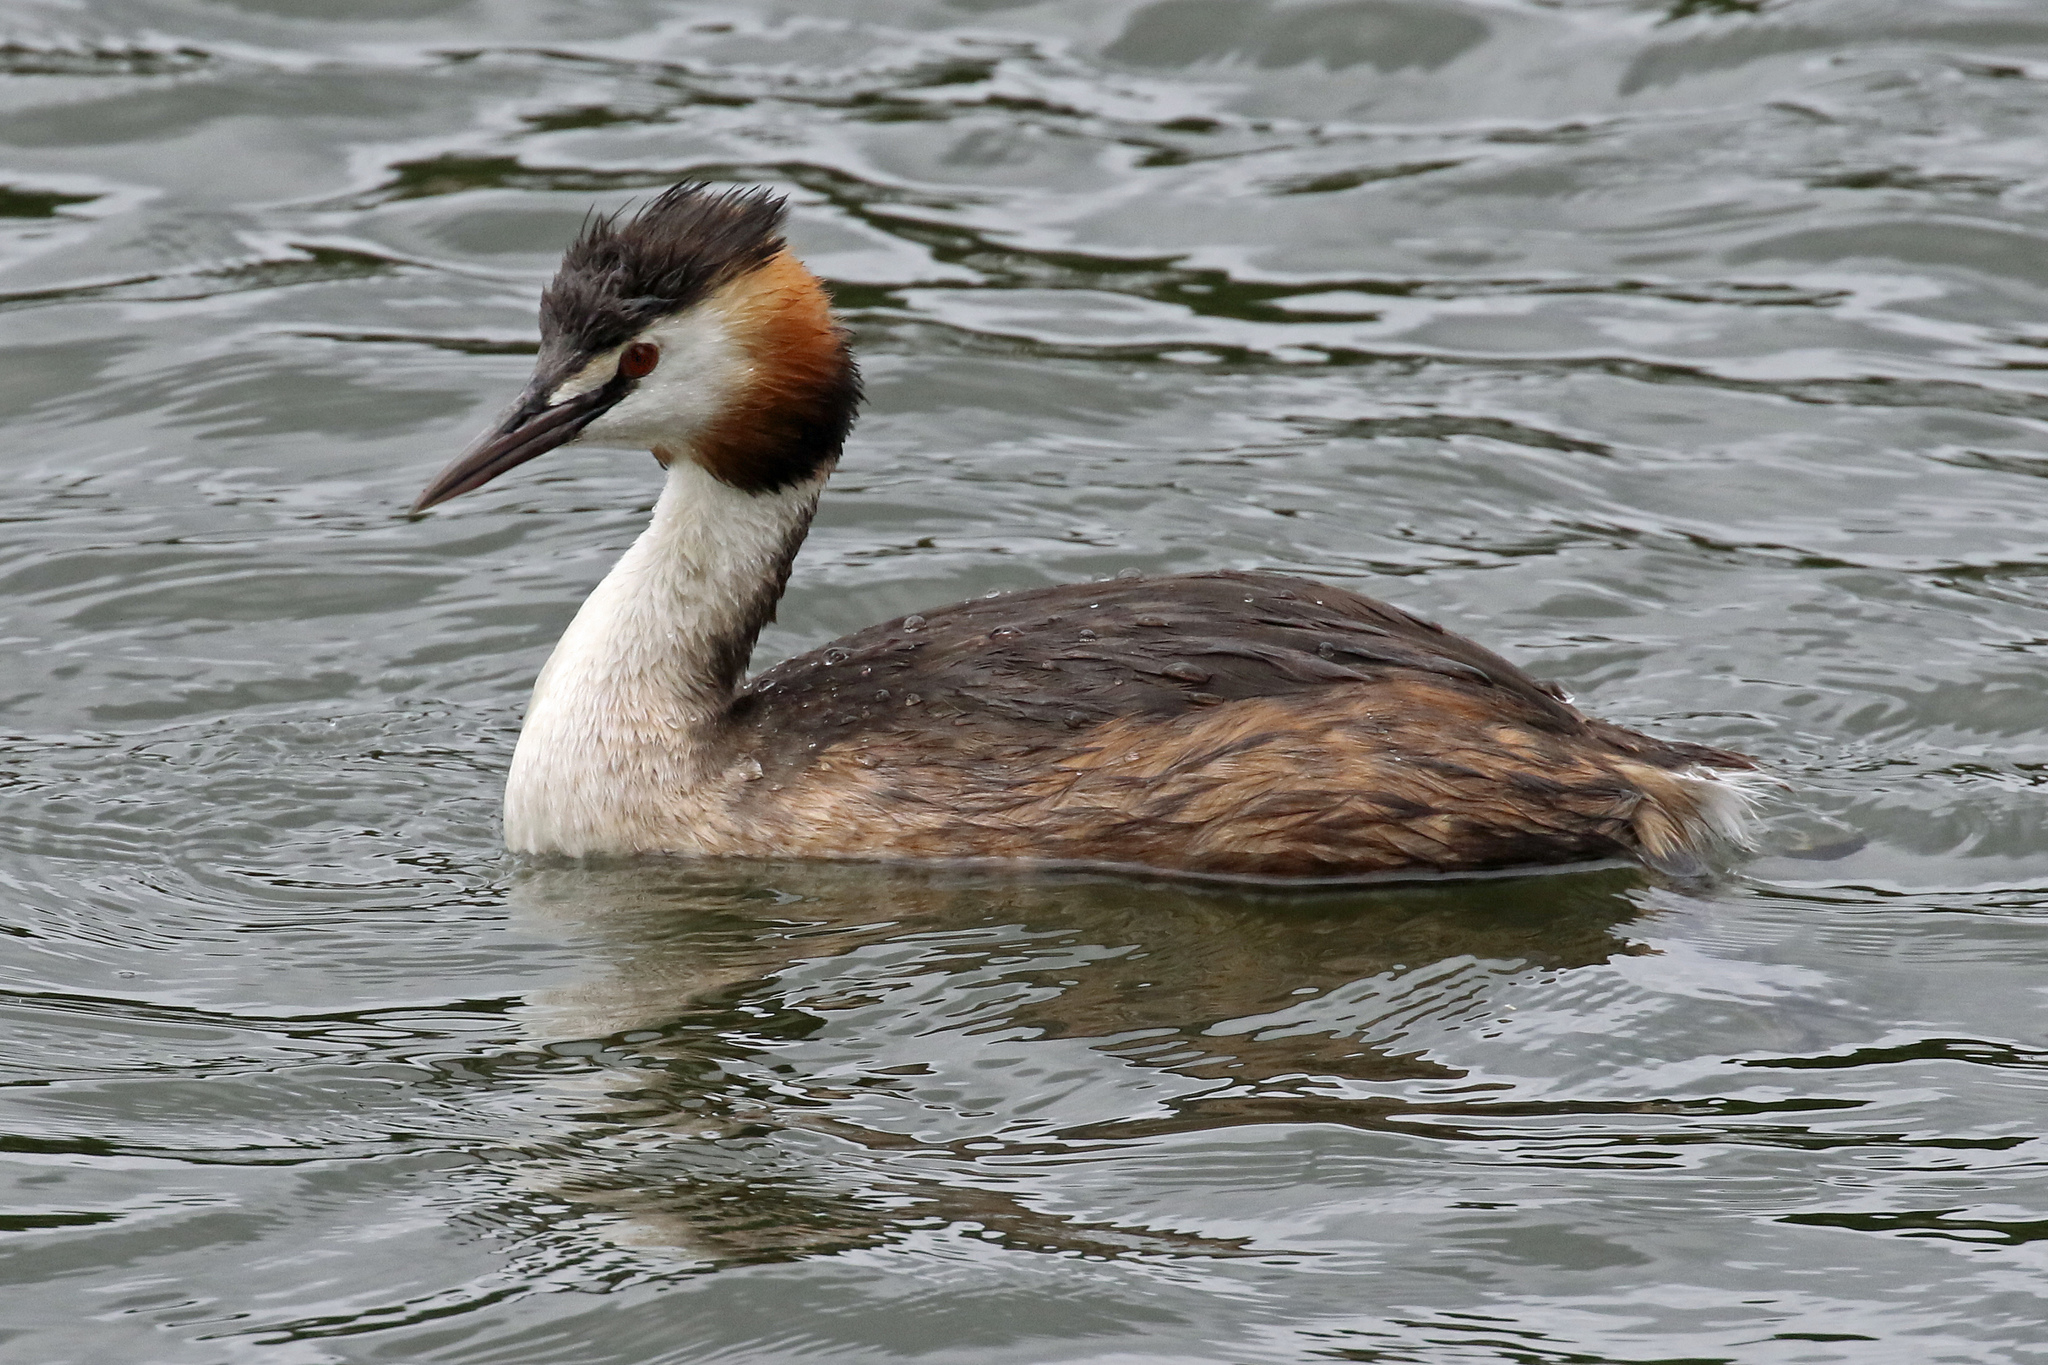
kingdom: Animalia
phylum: Chordata
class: Aves
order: Podicipediformes
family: Podicipedidae
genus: Podiceps
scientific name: Podiceps cristatus
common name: Great crested grebe
